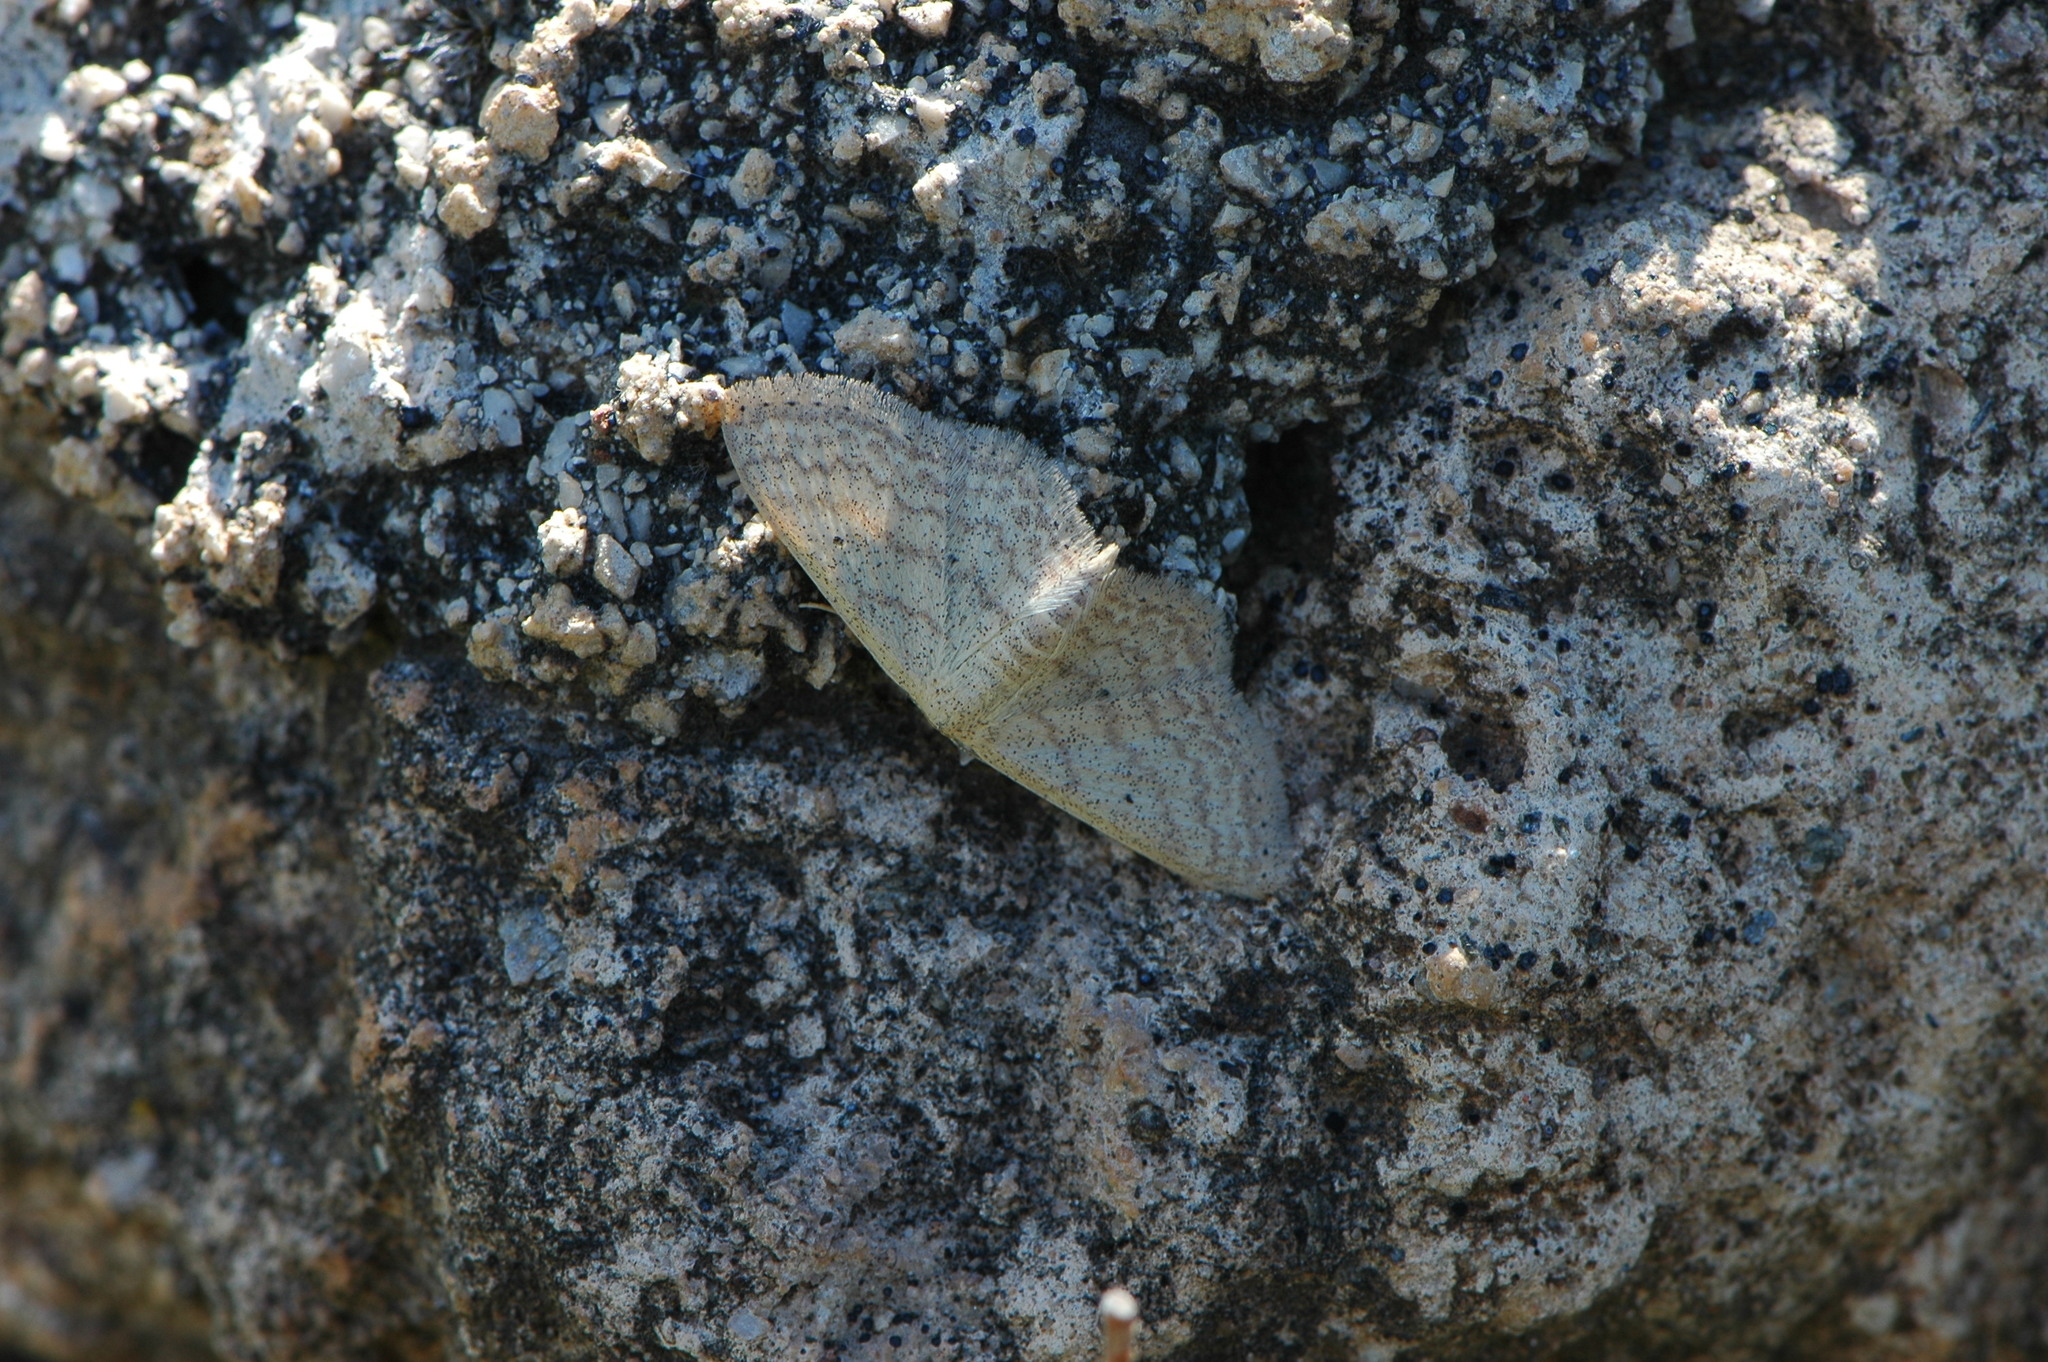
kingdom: Animalia
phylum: Arthropoda
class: Insecta
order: Lepidoptera
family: Geometridae
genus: Scopula
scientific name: Scopula minorata
